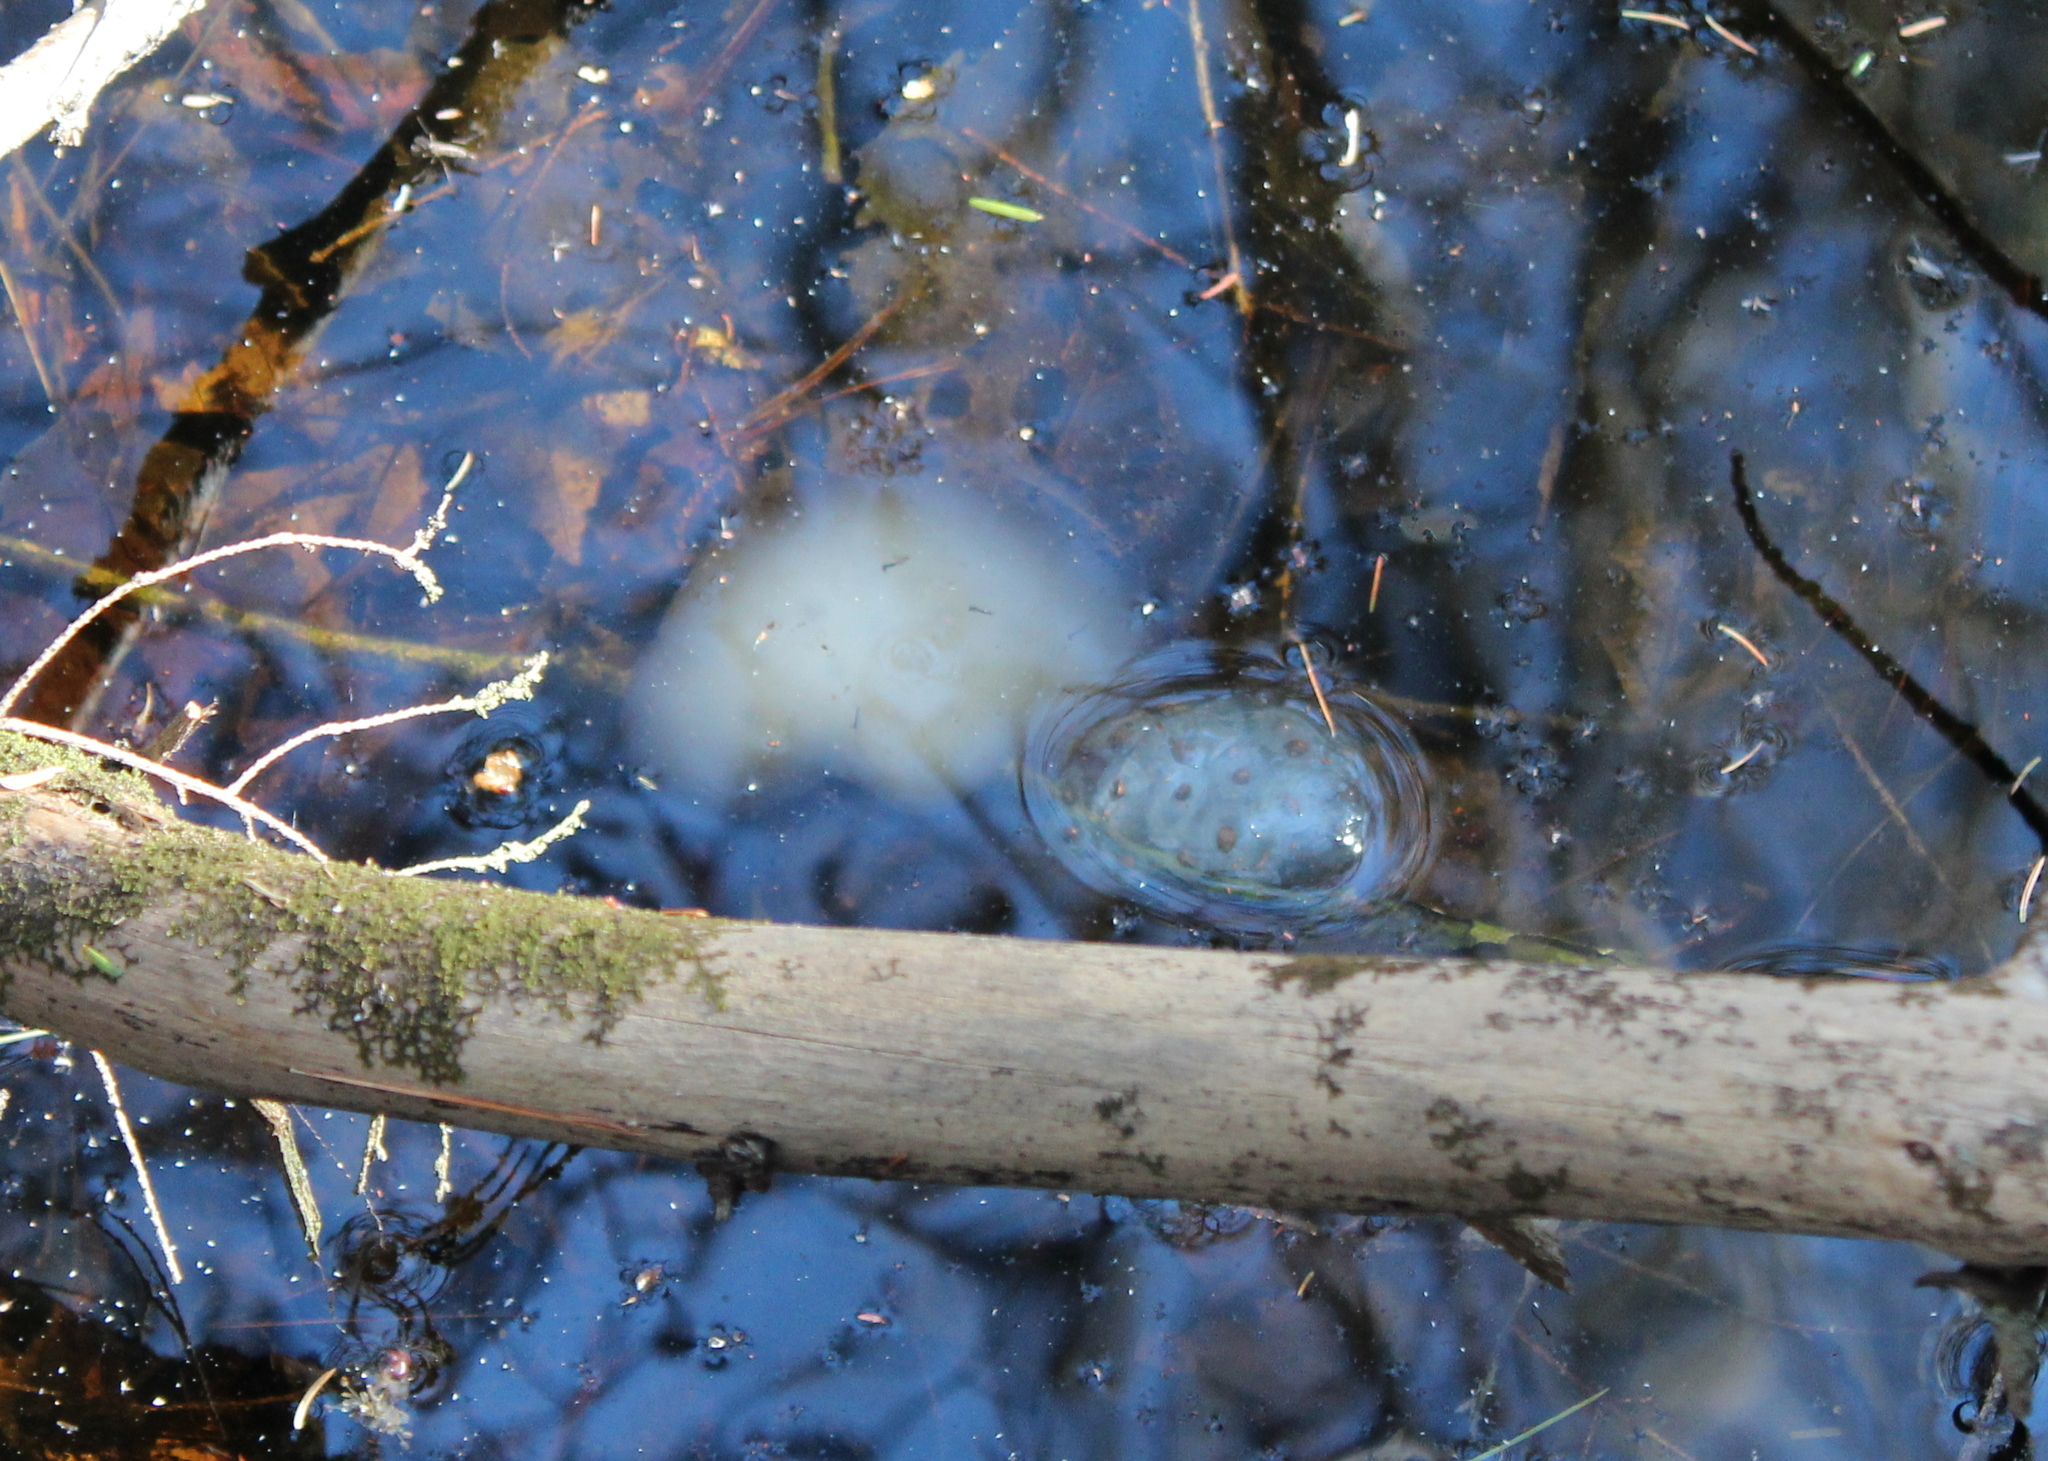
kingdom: Animalia
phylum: Chordata
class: Amphibia
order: Caudata
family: Ambystomatidae
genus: Ambystoma
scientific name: Ambystoma maculatum
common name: Spotted salamander
